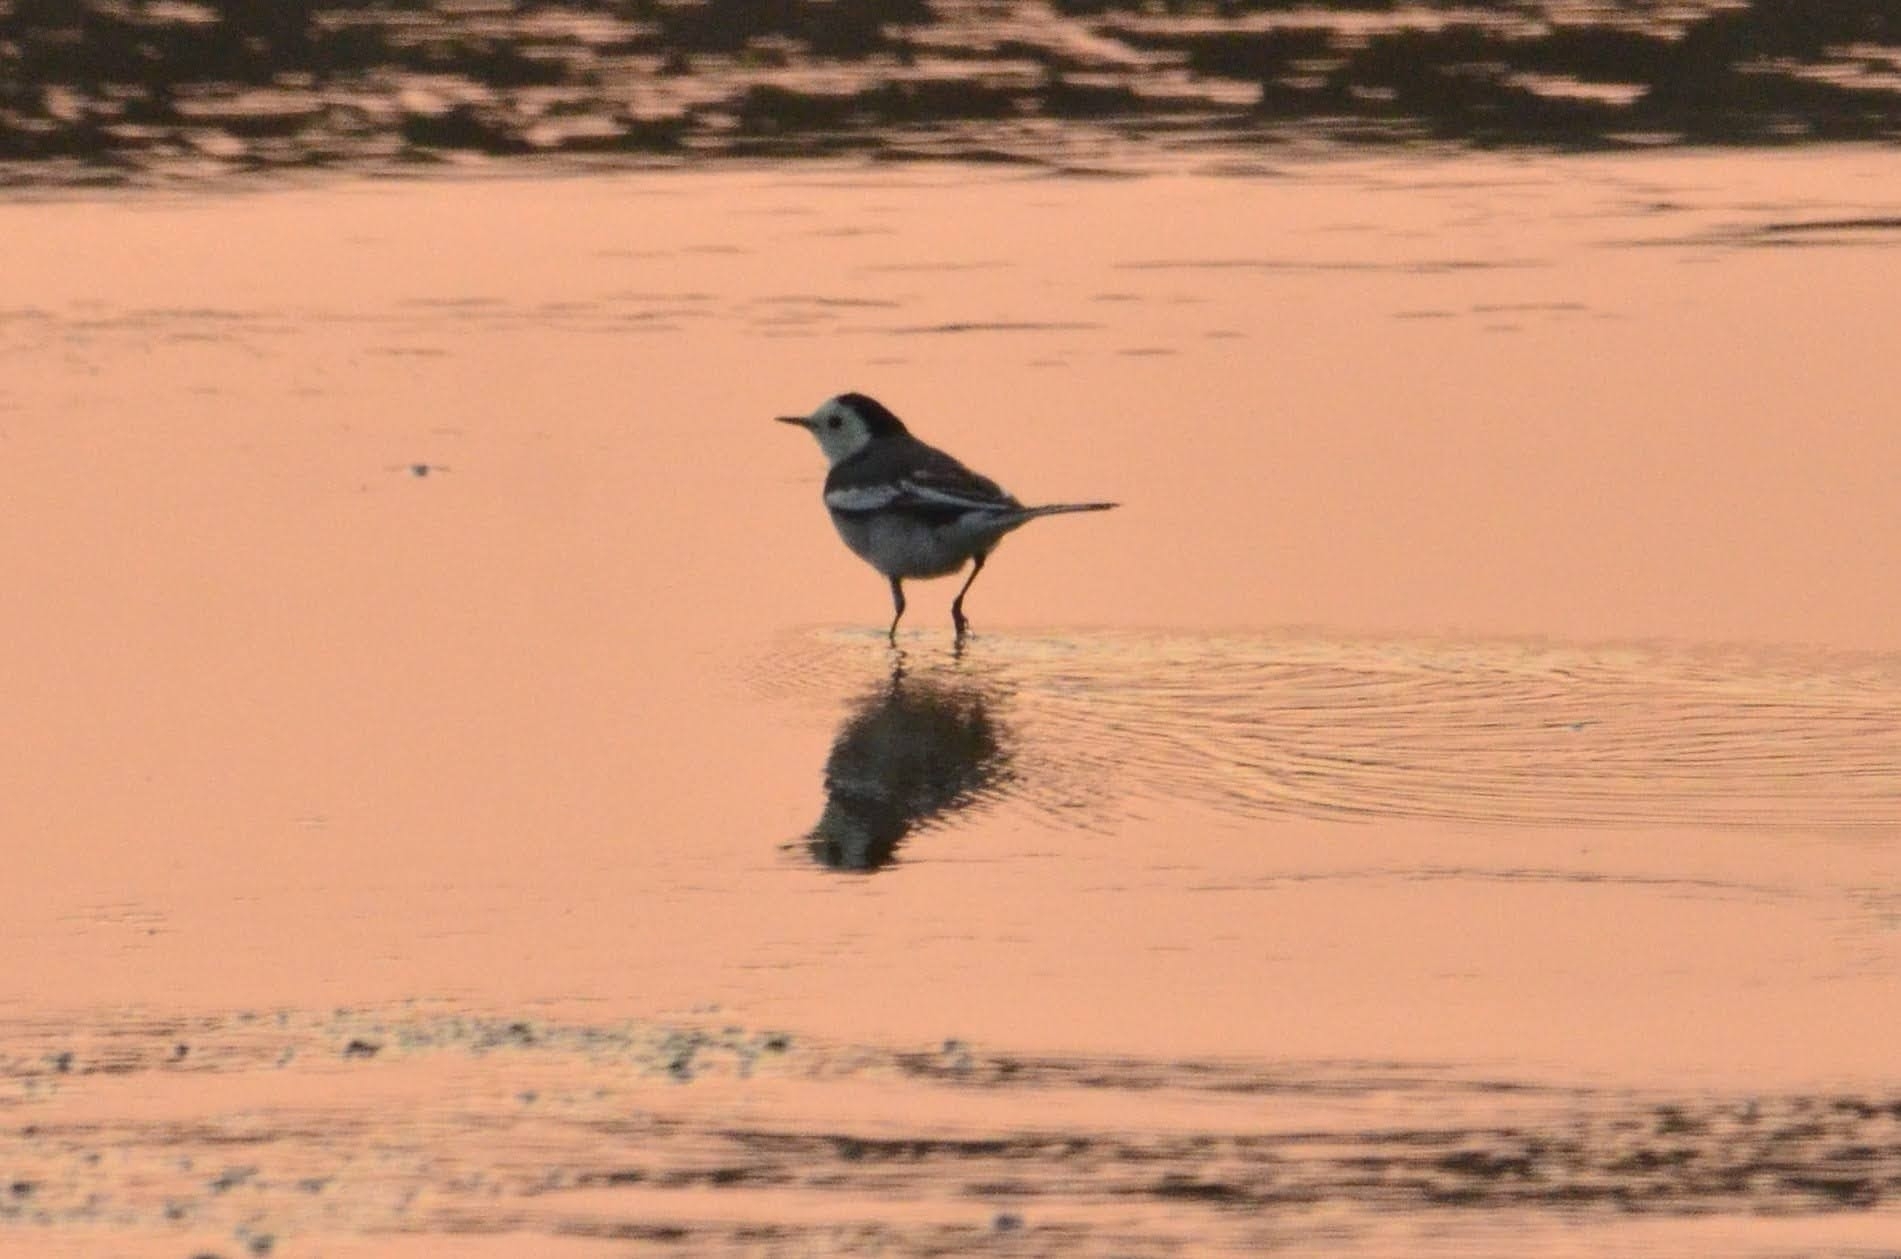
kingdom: Animalia
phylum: Chordata
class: Aves
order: Passeriformes
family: Motacillidae
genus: Motacilla
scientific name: Motacilla alba
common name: White wagtail
